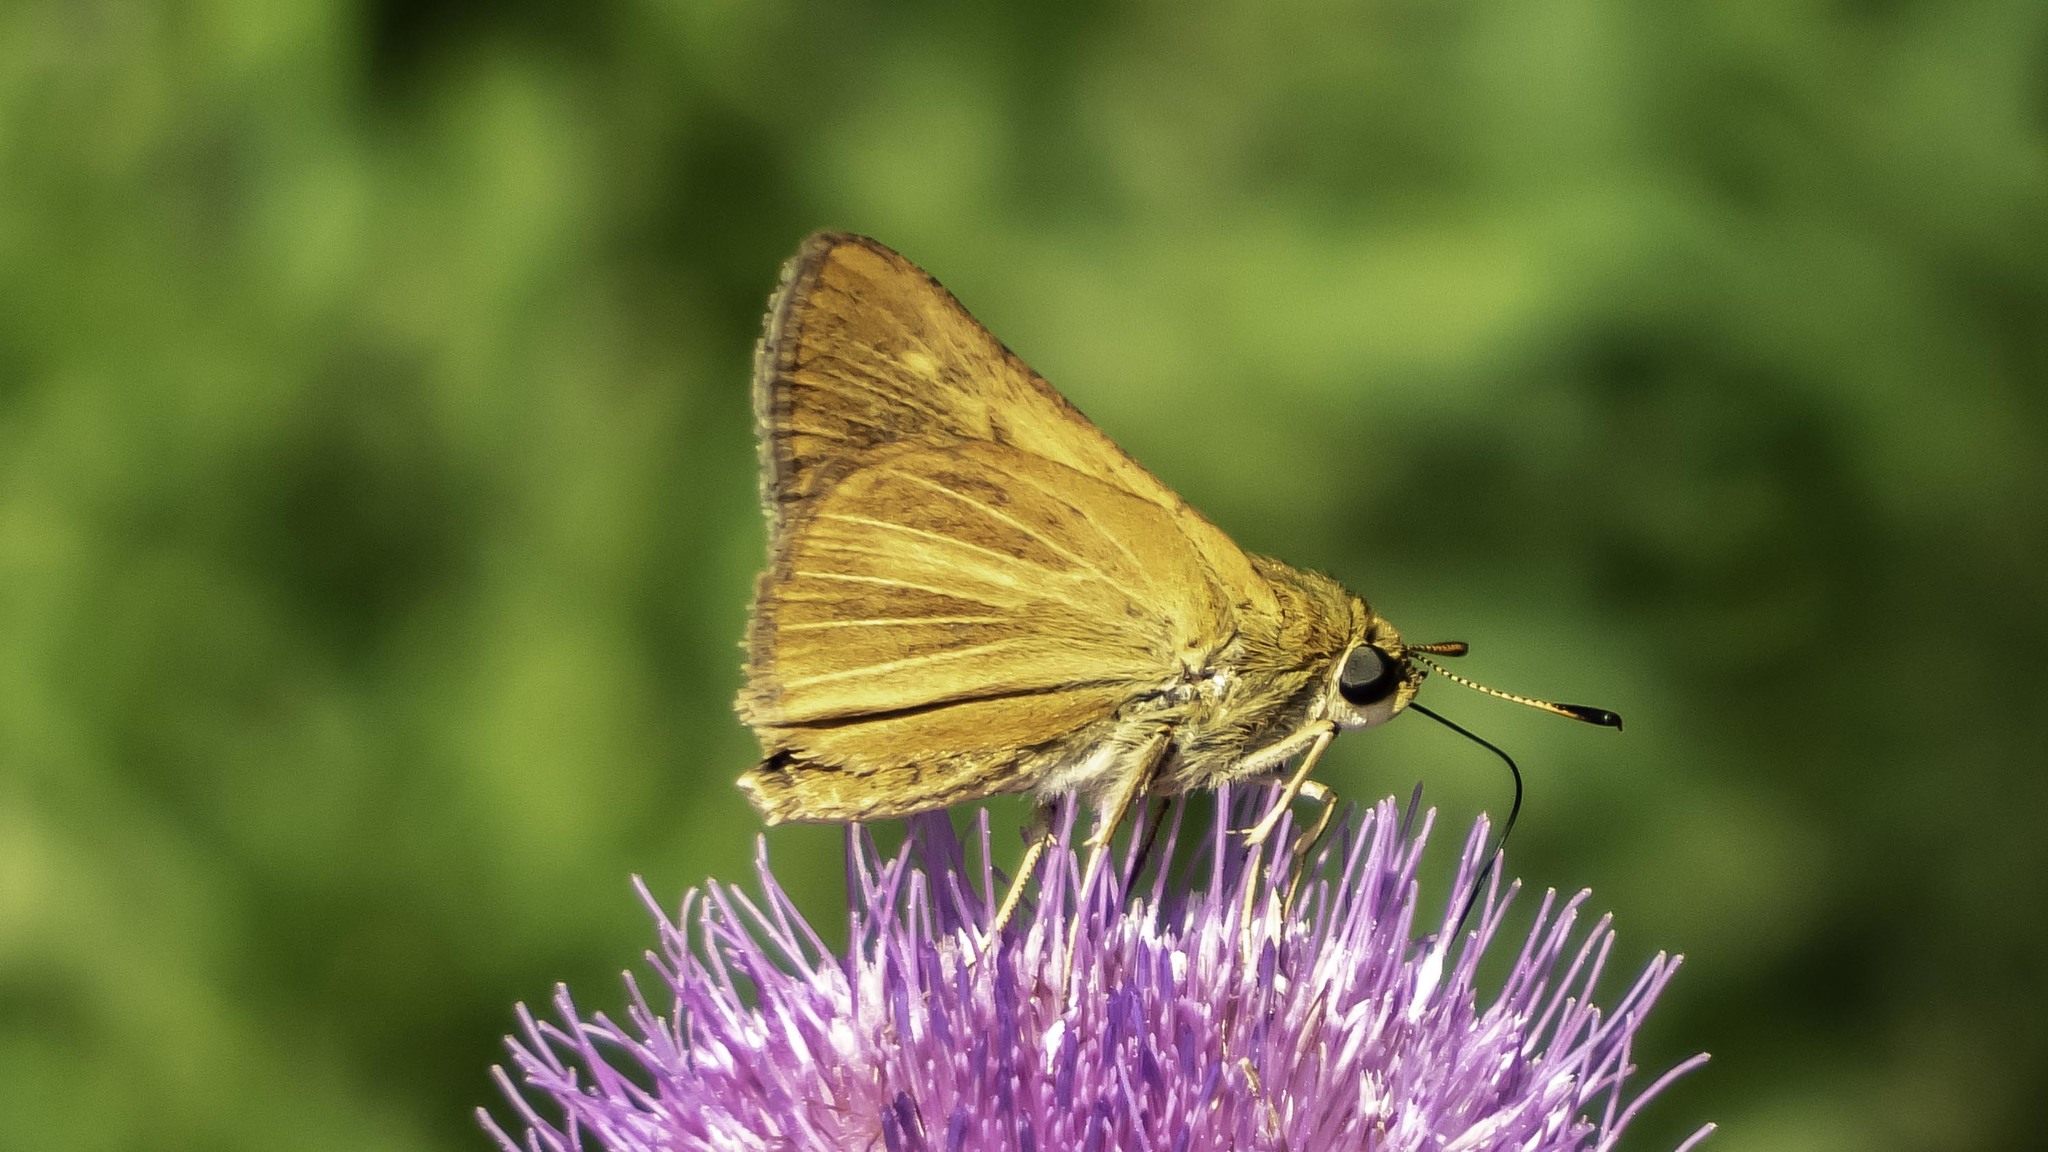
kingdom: Animalia
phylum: Arthropoda
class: Insecta
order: Lepidoptera
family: Hesperiidae
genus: Euphyes
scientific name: Euphyes dion
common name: Dion skipper
